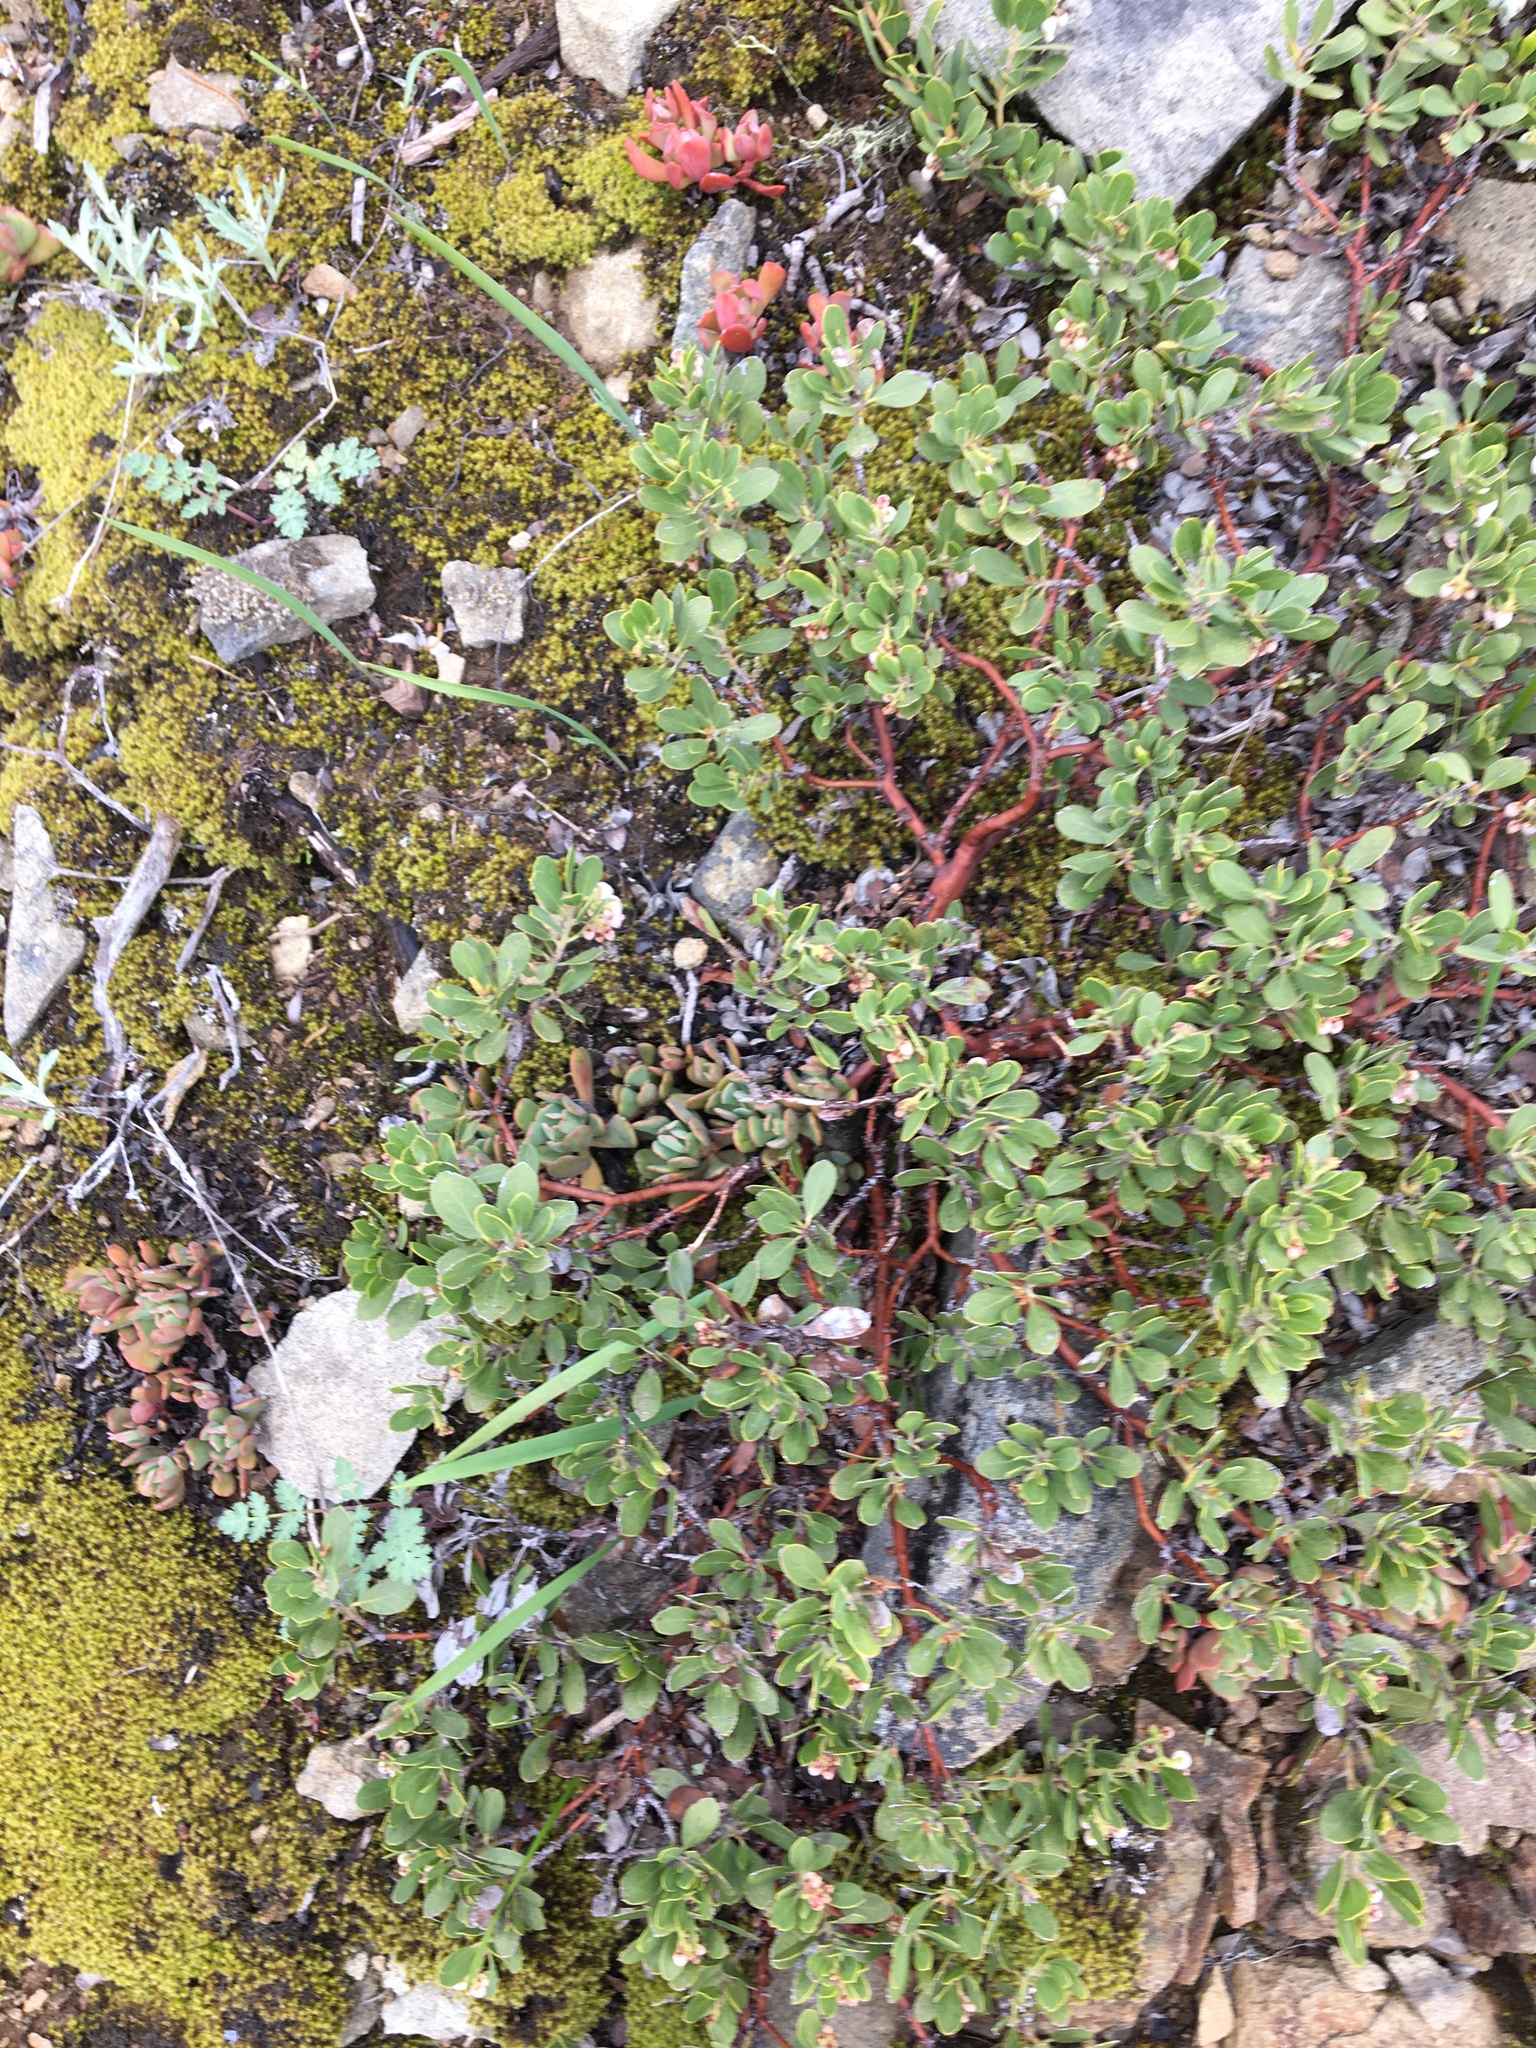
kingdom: Plantae
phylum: Tracheophyta
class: Magnoliopsida
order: Ericales
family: Ericaceae
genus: Arctostaphylos
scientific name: Arctostaphylos nevadensis
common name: Pinemat manzanita
